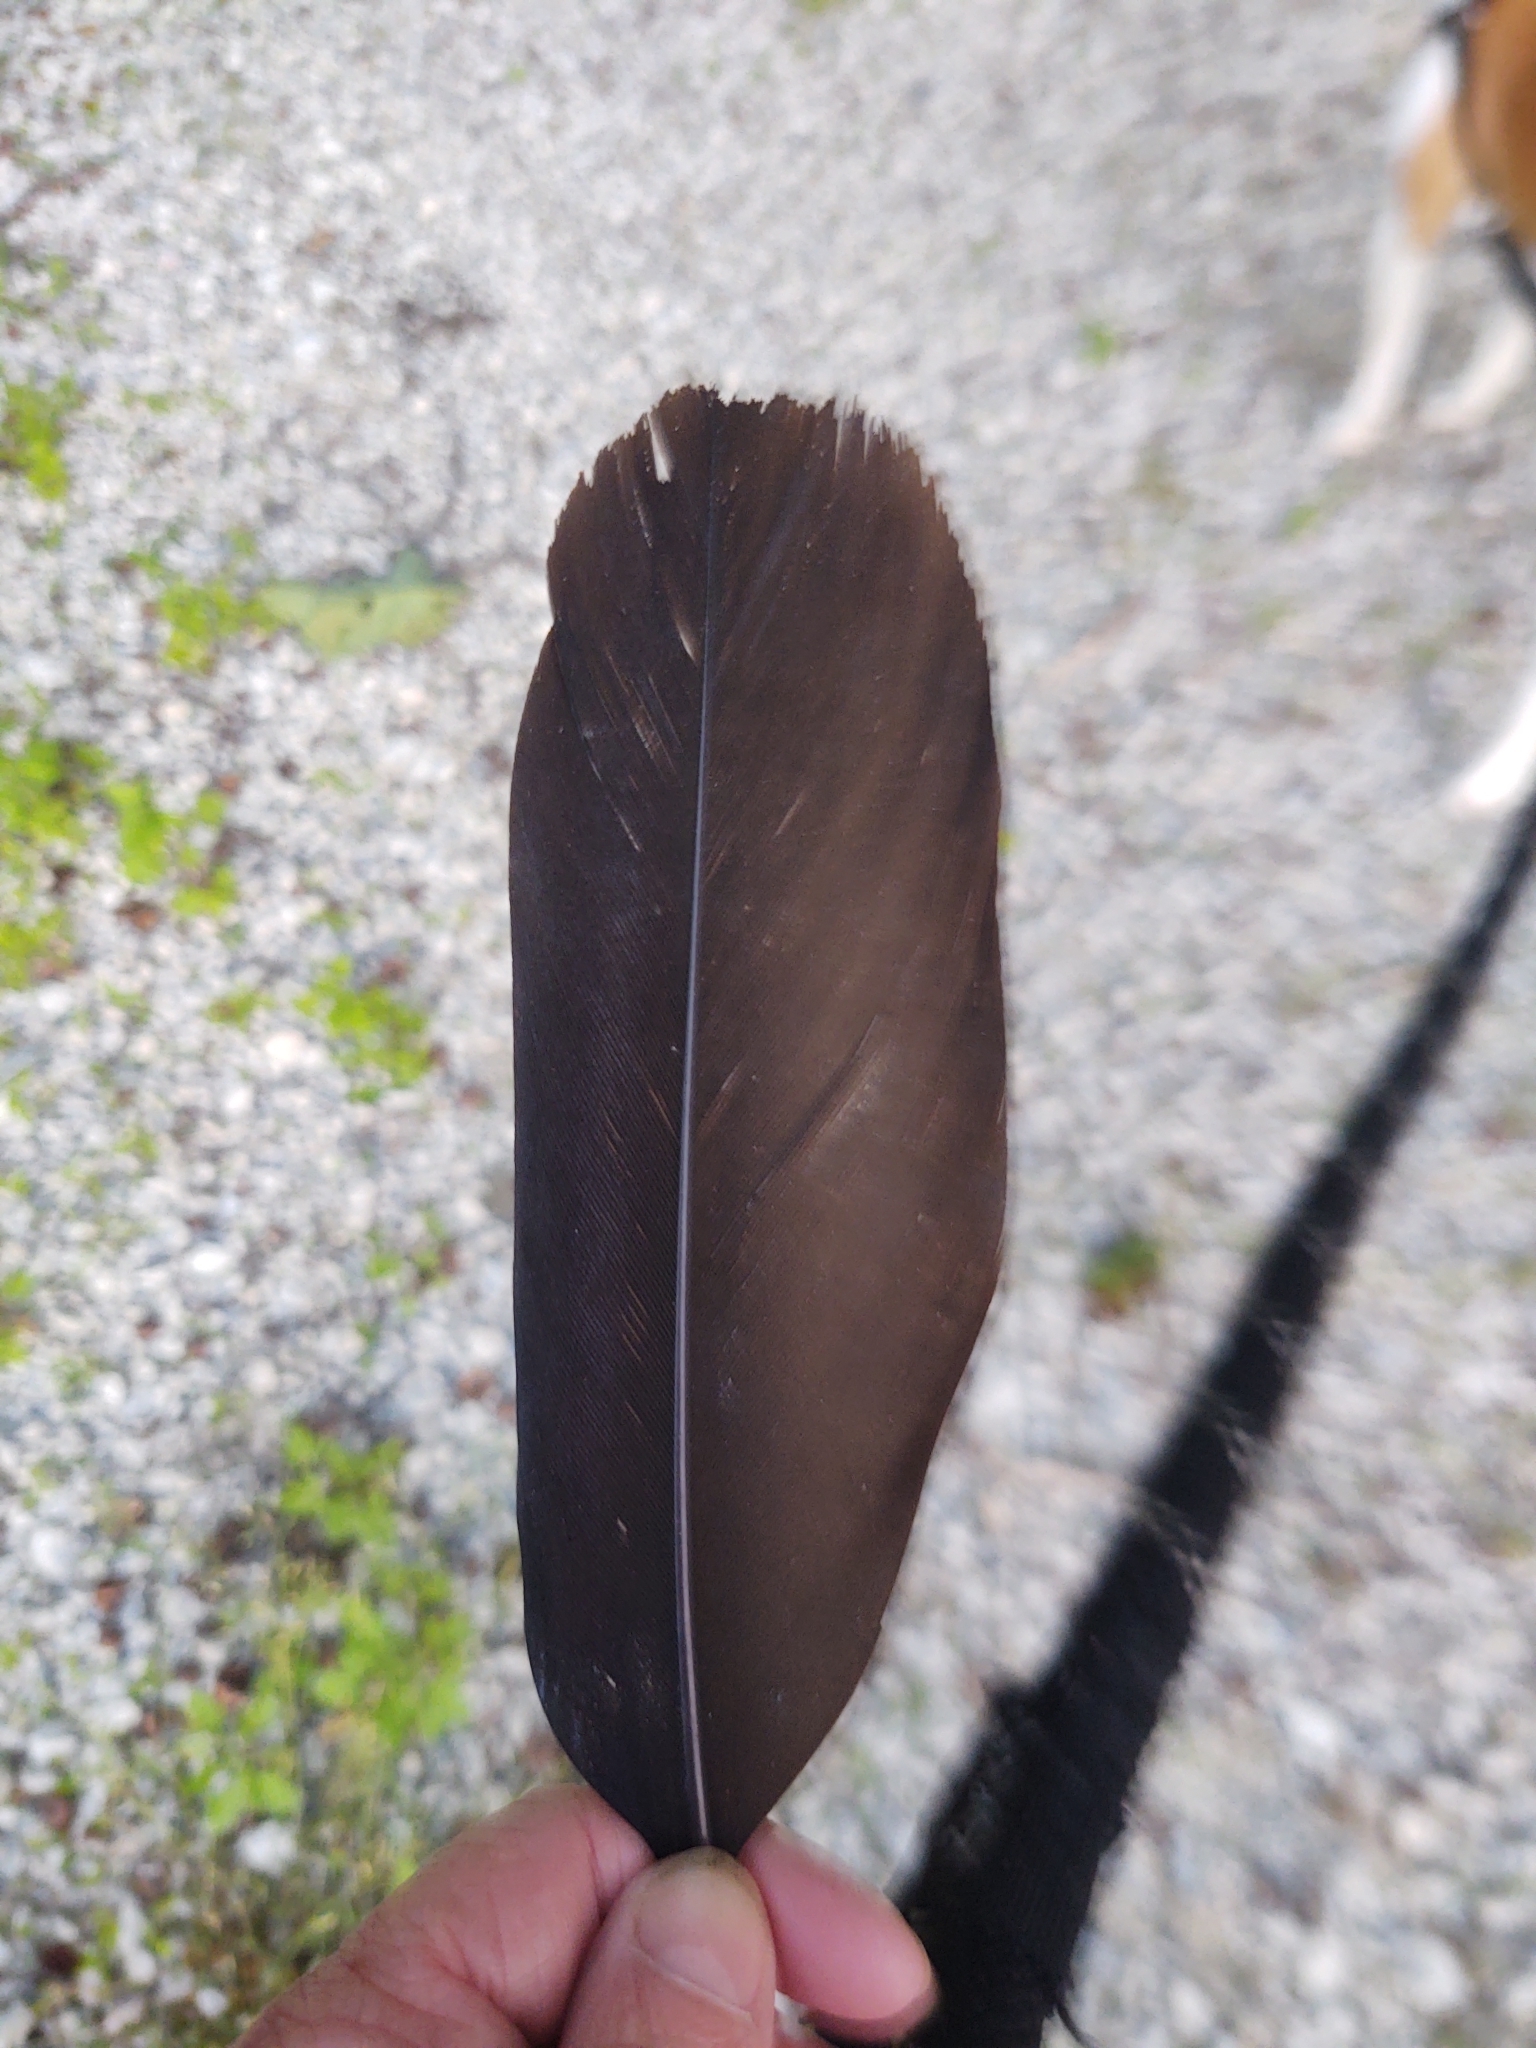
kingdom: Animalia
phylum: Chordata
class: Aves
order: Accipitriformes
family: Cathartidae
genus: Cathartes
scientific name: Cathartes aura
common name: Turkey vulture
